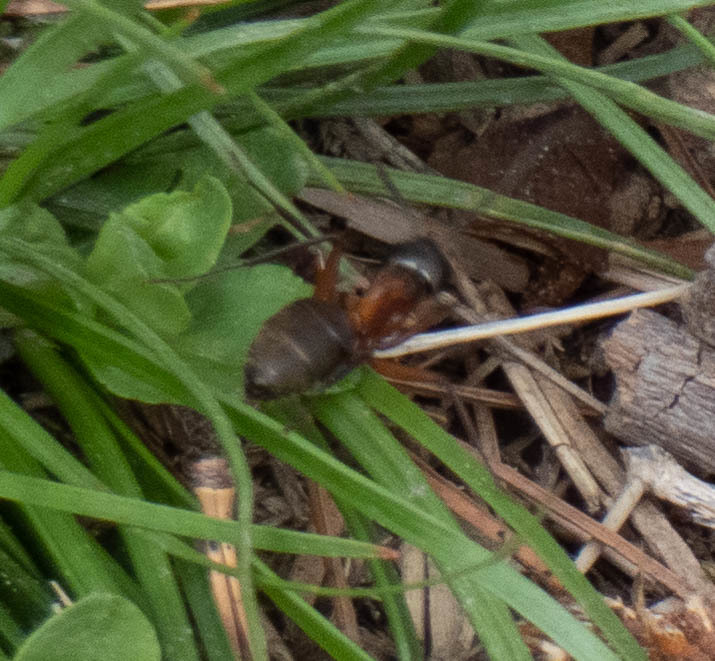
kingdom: Animalia
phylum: Arthropoda
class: Insecta
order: Hymenoptera
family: Formicidae
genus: Camponotus
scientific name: Camponotus chromaiodes
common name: Red carpenter ant
